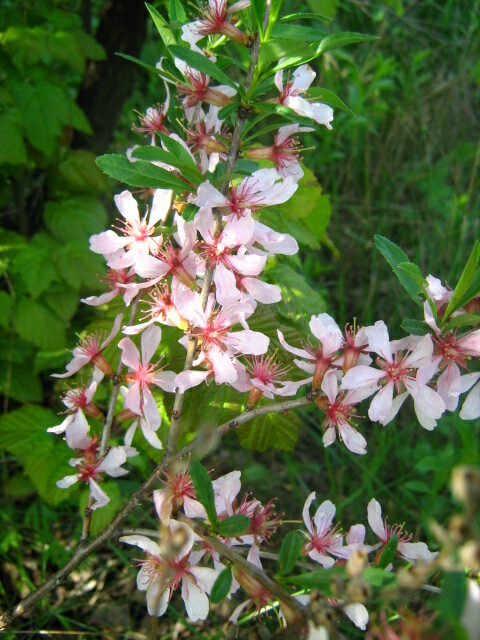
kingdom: Plantae
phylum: Tracheophyta
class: Magnoliopsida
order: Rosales
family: Rosaceae
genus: Prunus
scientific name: Prunus tenella
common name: Dwarf russian almond
